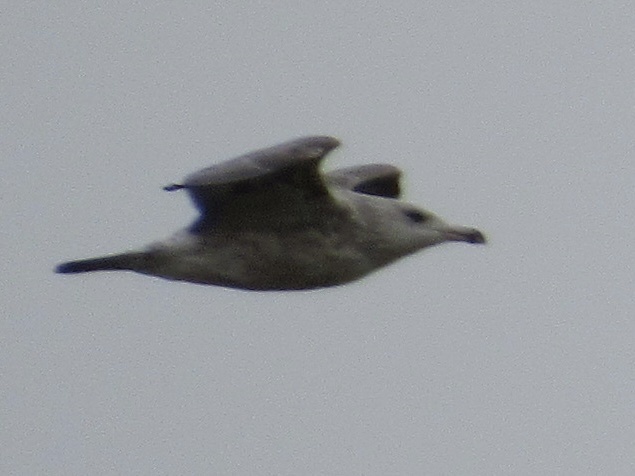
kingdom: Animalia
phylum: Chordata
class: Aves
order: Charadriiformes
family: Laridae
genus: Larus
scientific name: Larus delawarensis
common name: Ring-billed gull
